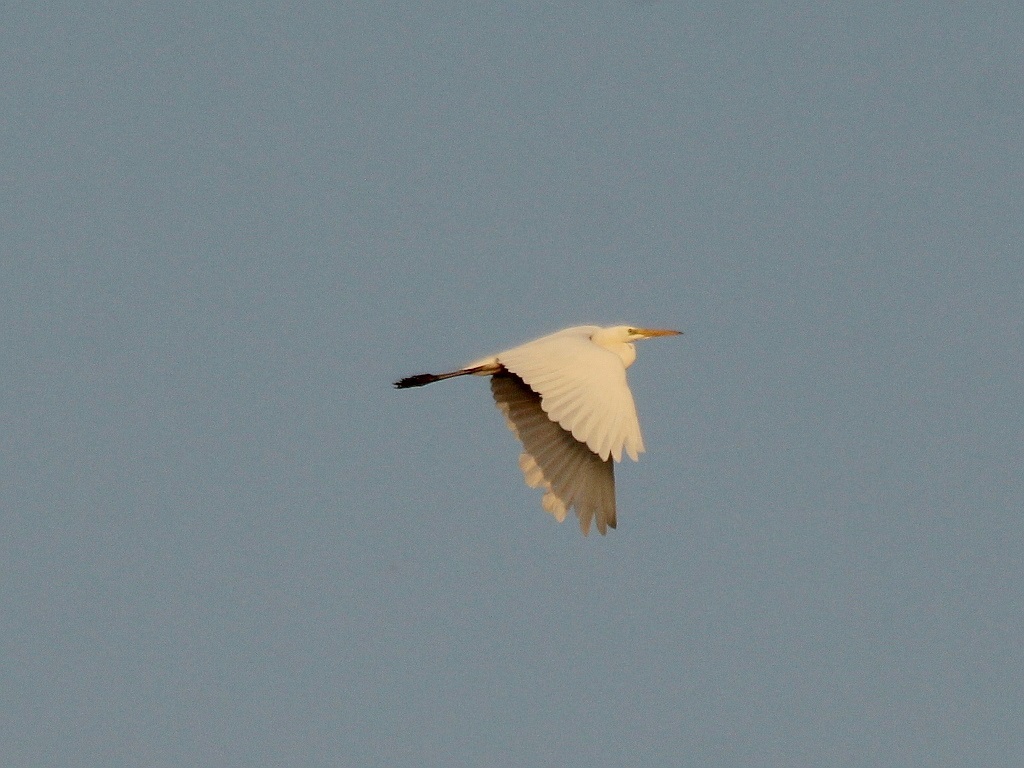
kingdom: Animalia
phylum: Chordata
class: Aves
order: Pelecaniformes
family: Ardeidae
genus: Ardea
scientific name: Ardea alba
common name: Great egret
